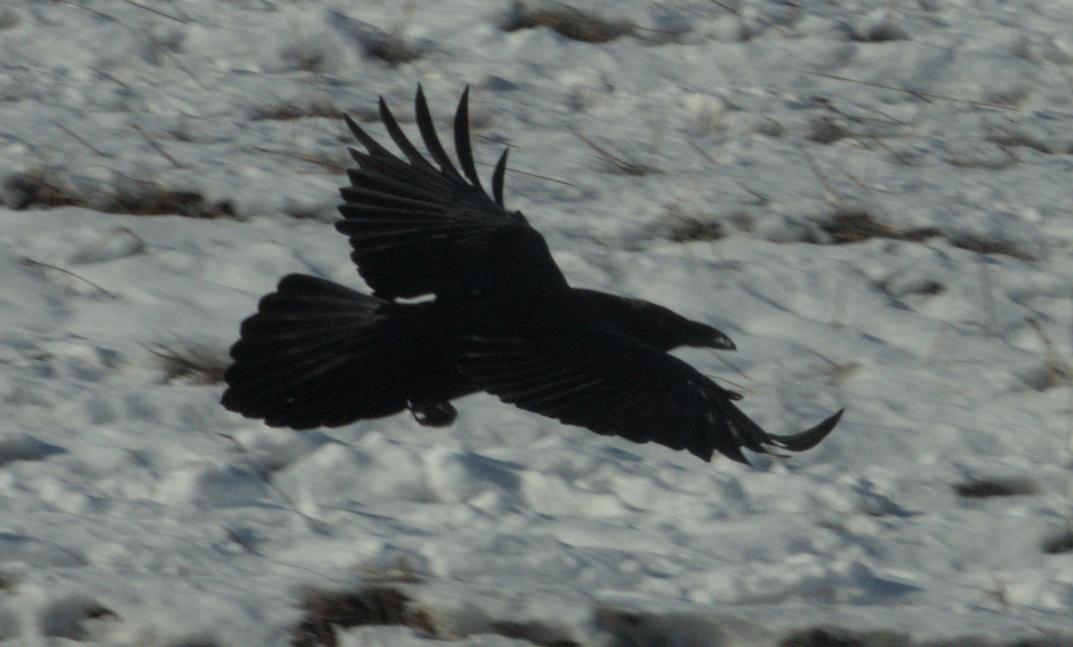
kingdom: Animalia
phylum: Chordata
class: Aves
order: Passeriformes
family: Corvidae
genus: Corvus
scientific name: Corvus corax
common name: Common raven
